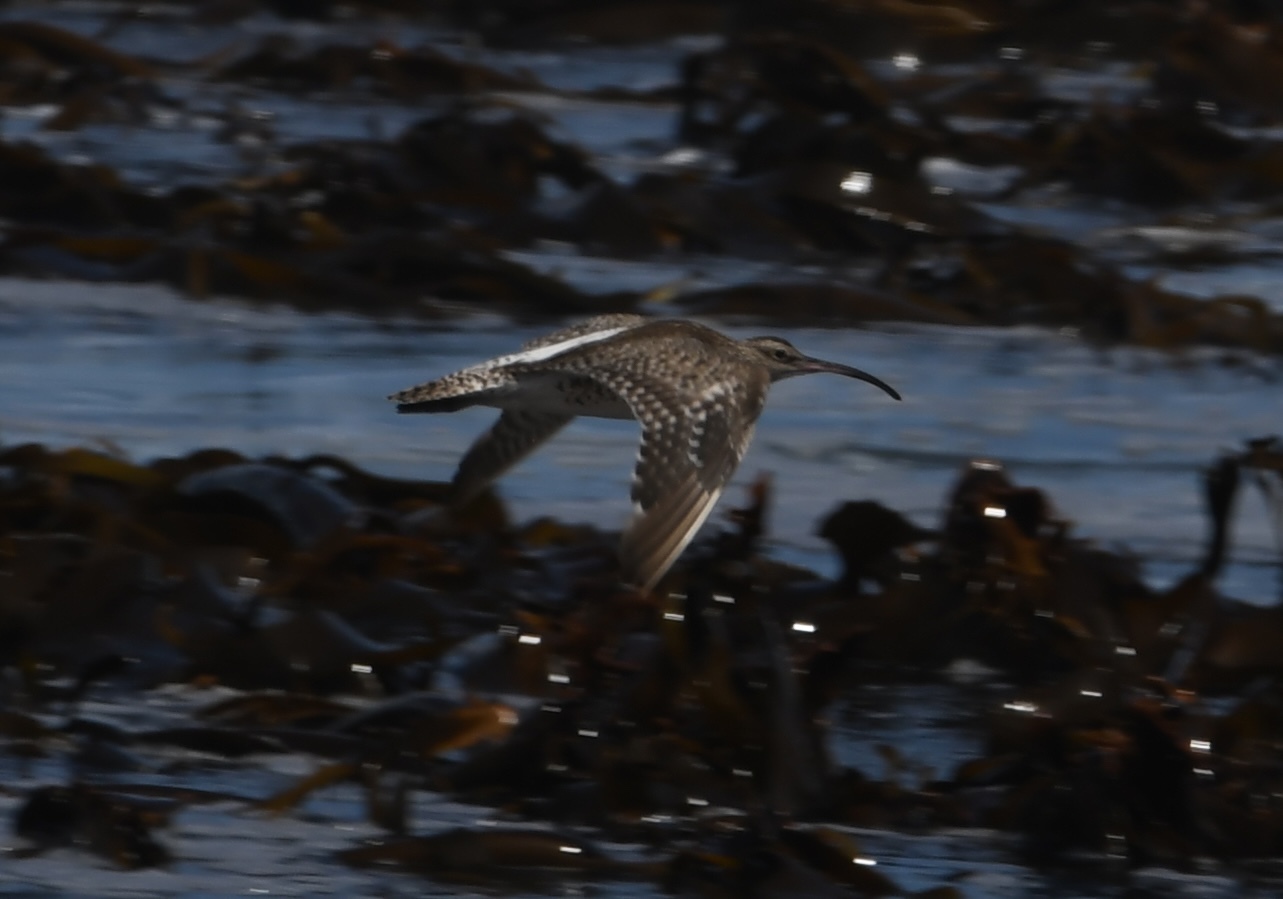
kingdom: Animalia
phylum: Chordata
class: Aves
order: Charadriiformes
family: Scolopacidae
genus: Numenius
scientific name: Numenius phaeopus
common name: Whimbrel
